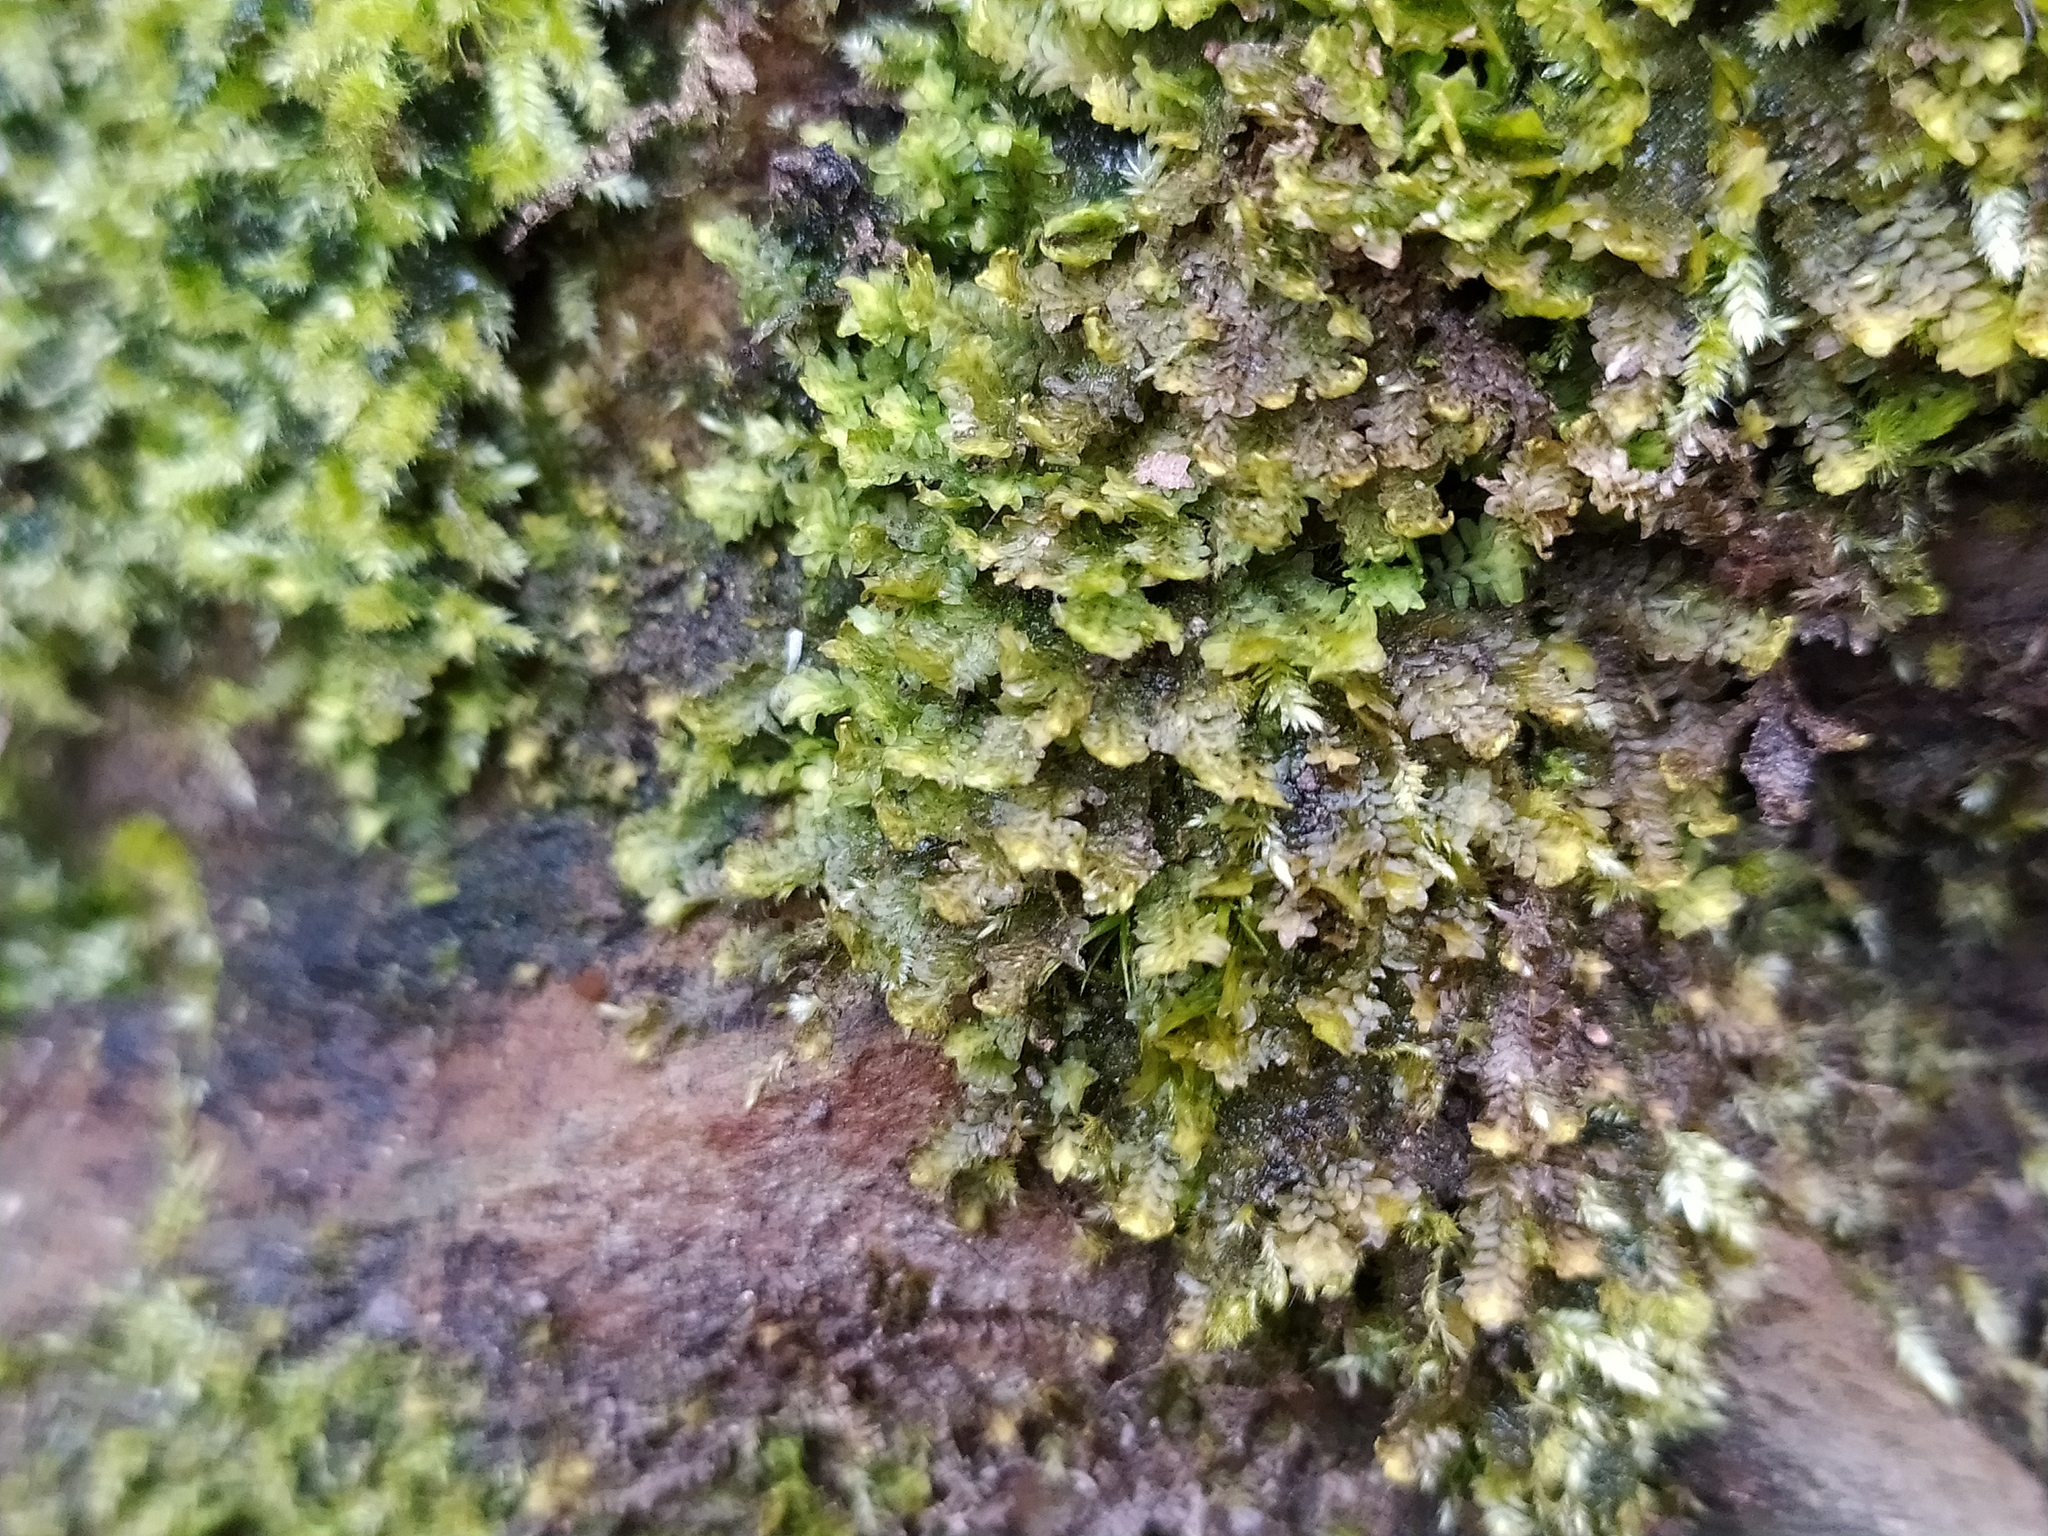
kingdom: Plantae
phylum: Marchantiophyta
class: Jungermanniopsida
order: Jungermanniales
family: Scapaniaceae
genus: Diplophyllum
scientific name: Diplophyllum albicans
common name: White earwort
